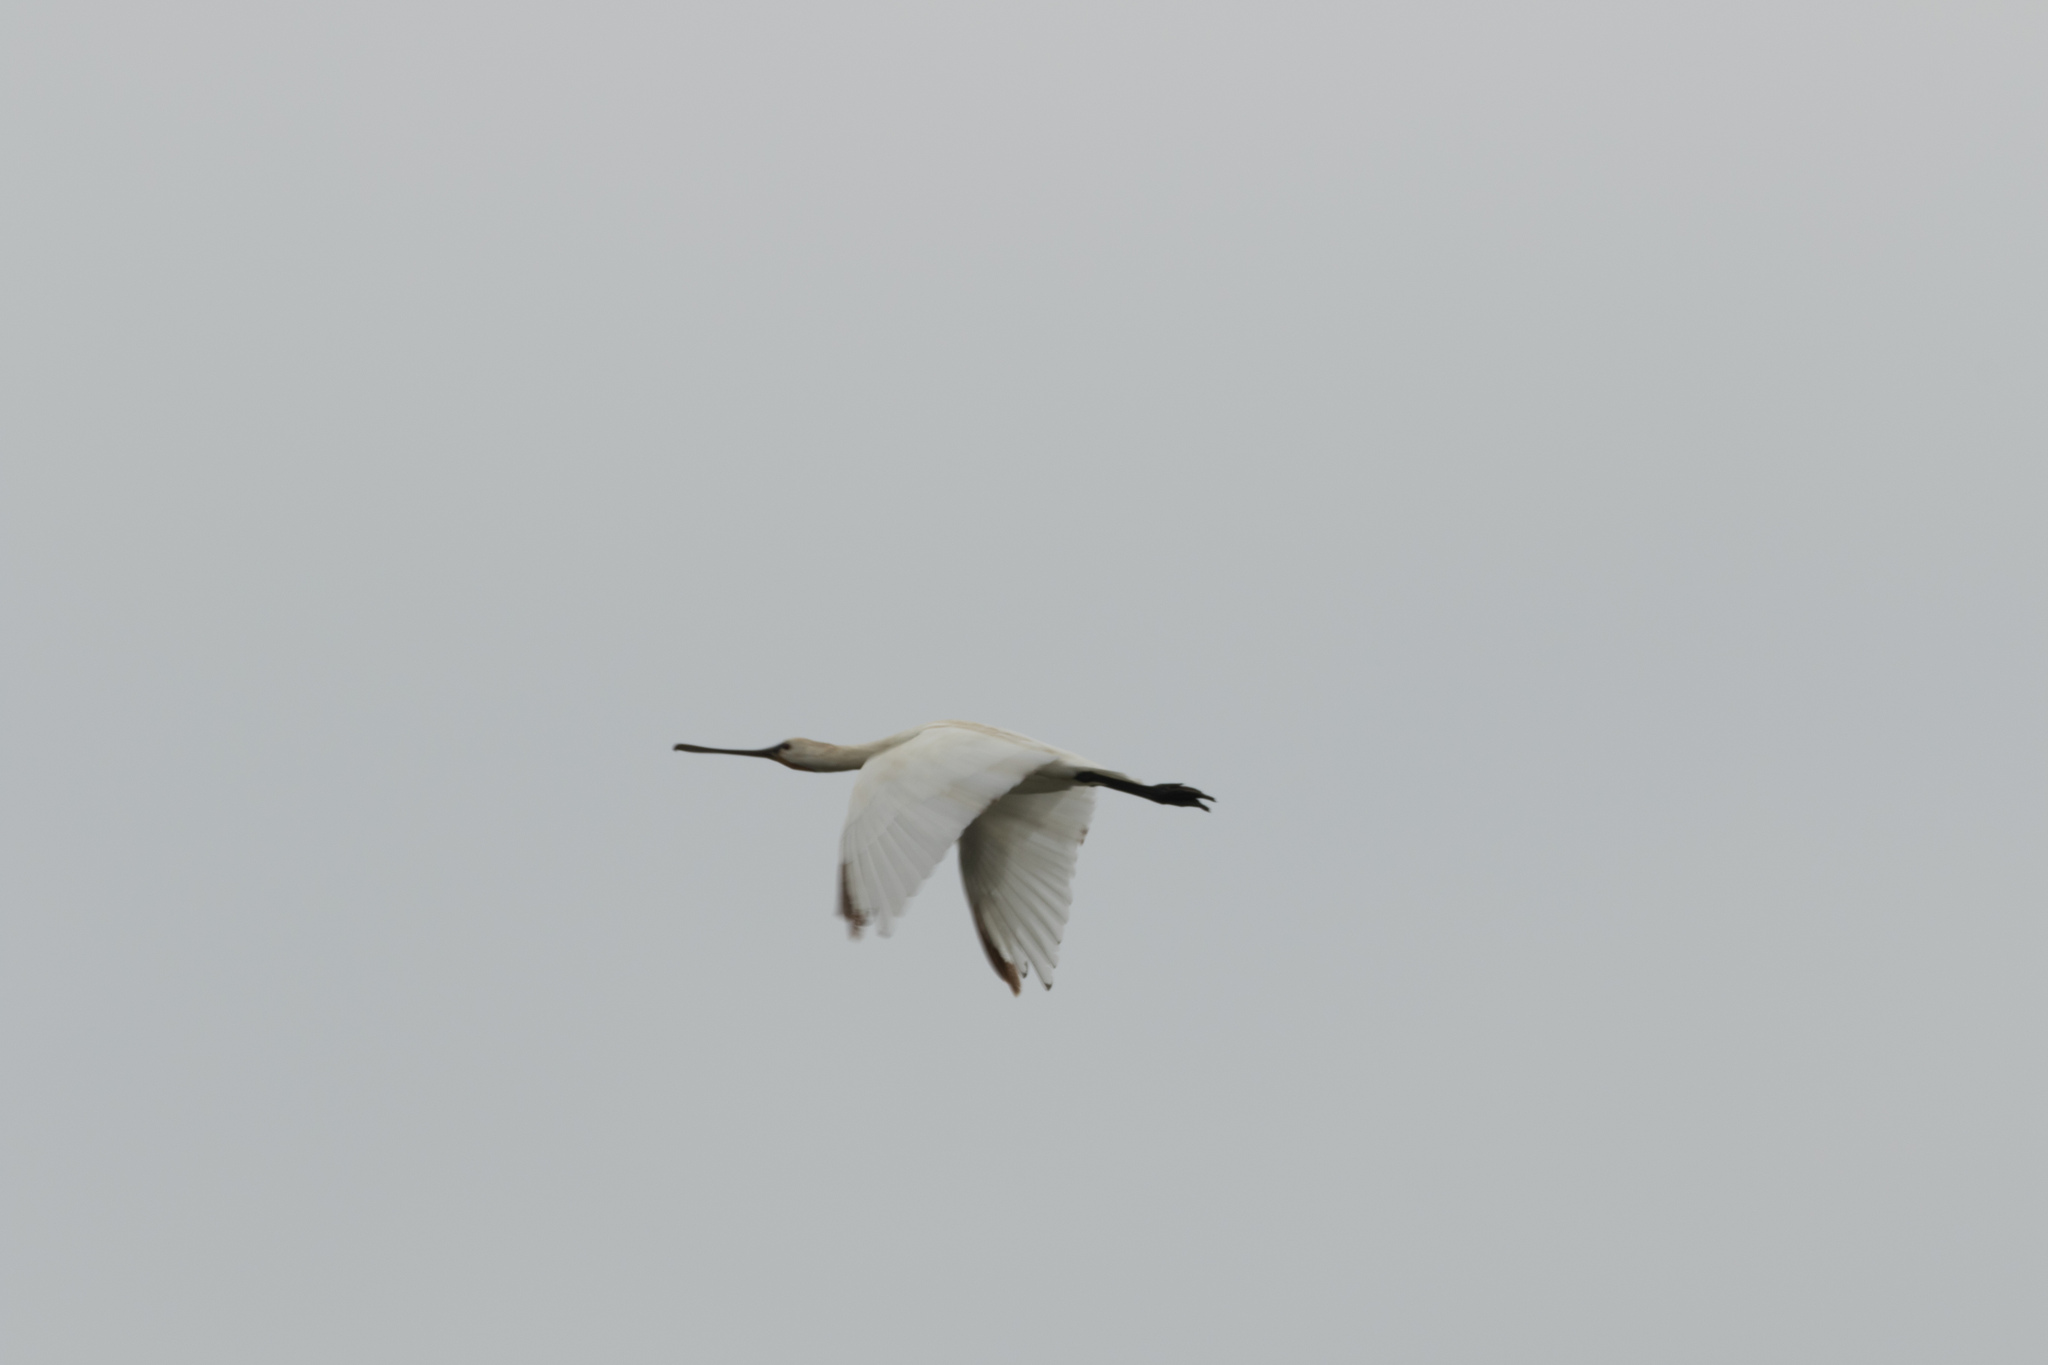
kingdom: Animalia
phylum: Chordata
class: Aves
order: Pelecaniformes
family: Threskiornithidae
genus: Platalea
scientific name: Platalea leucorodia
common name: Eurasian spoonbill
